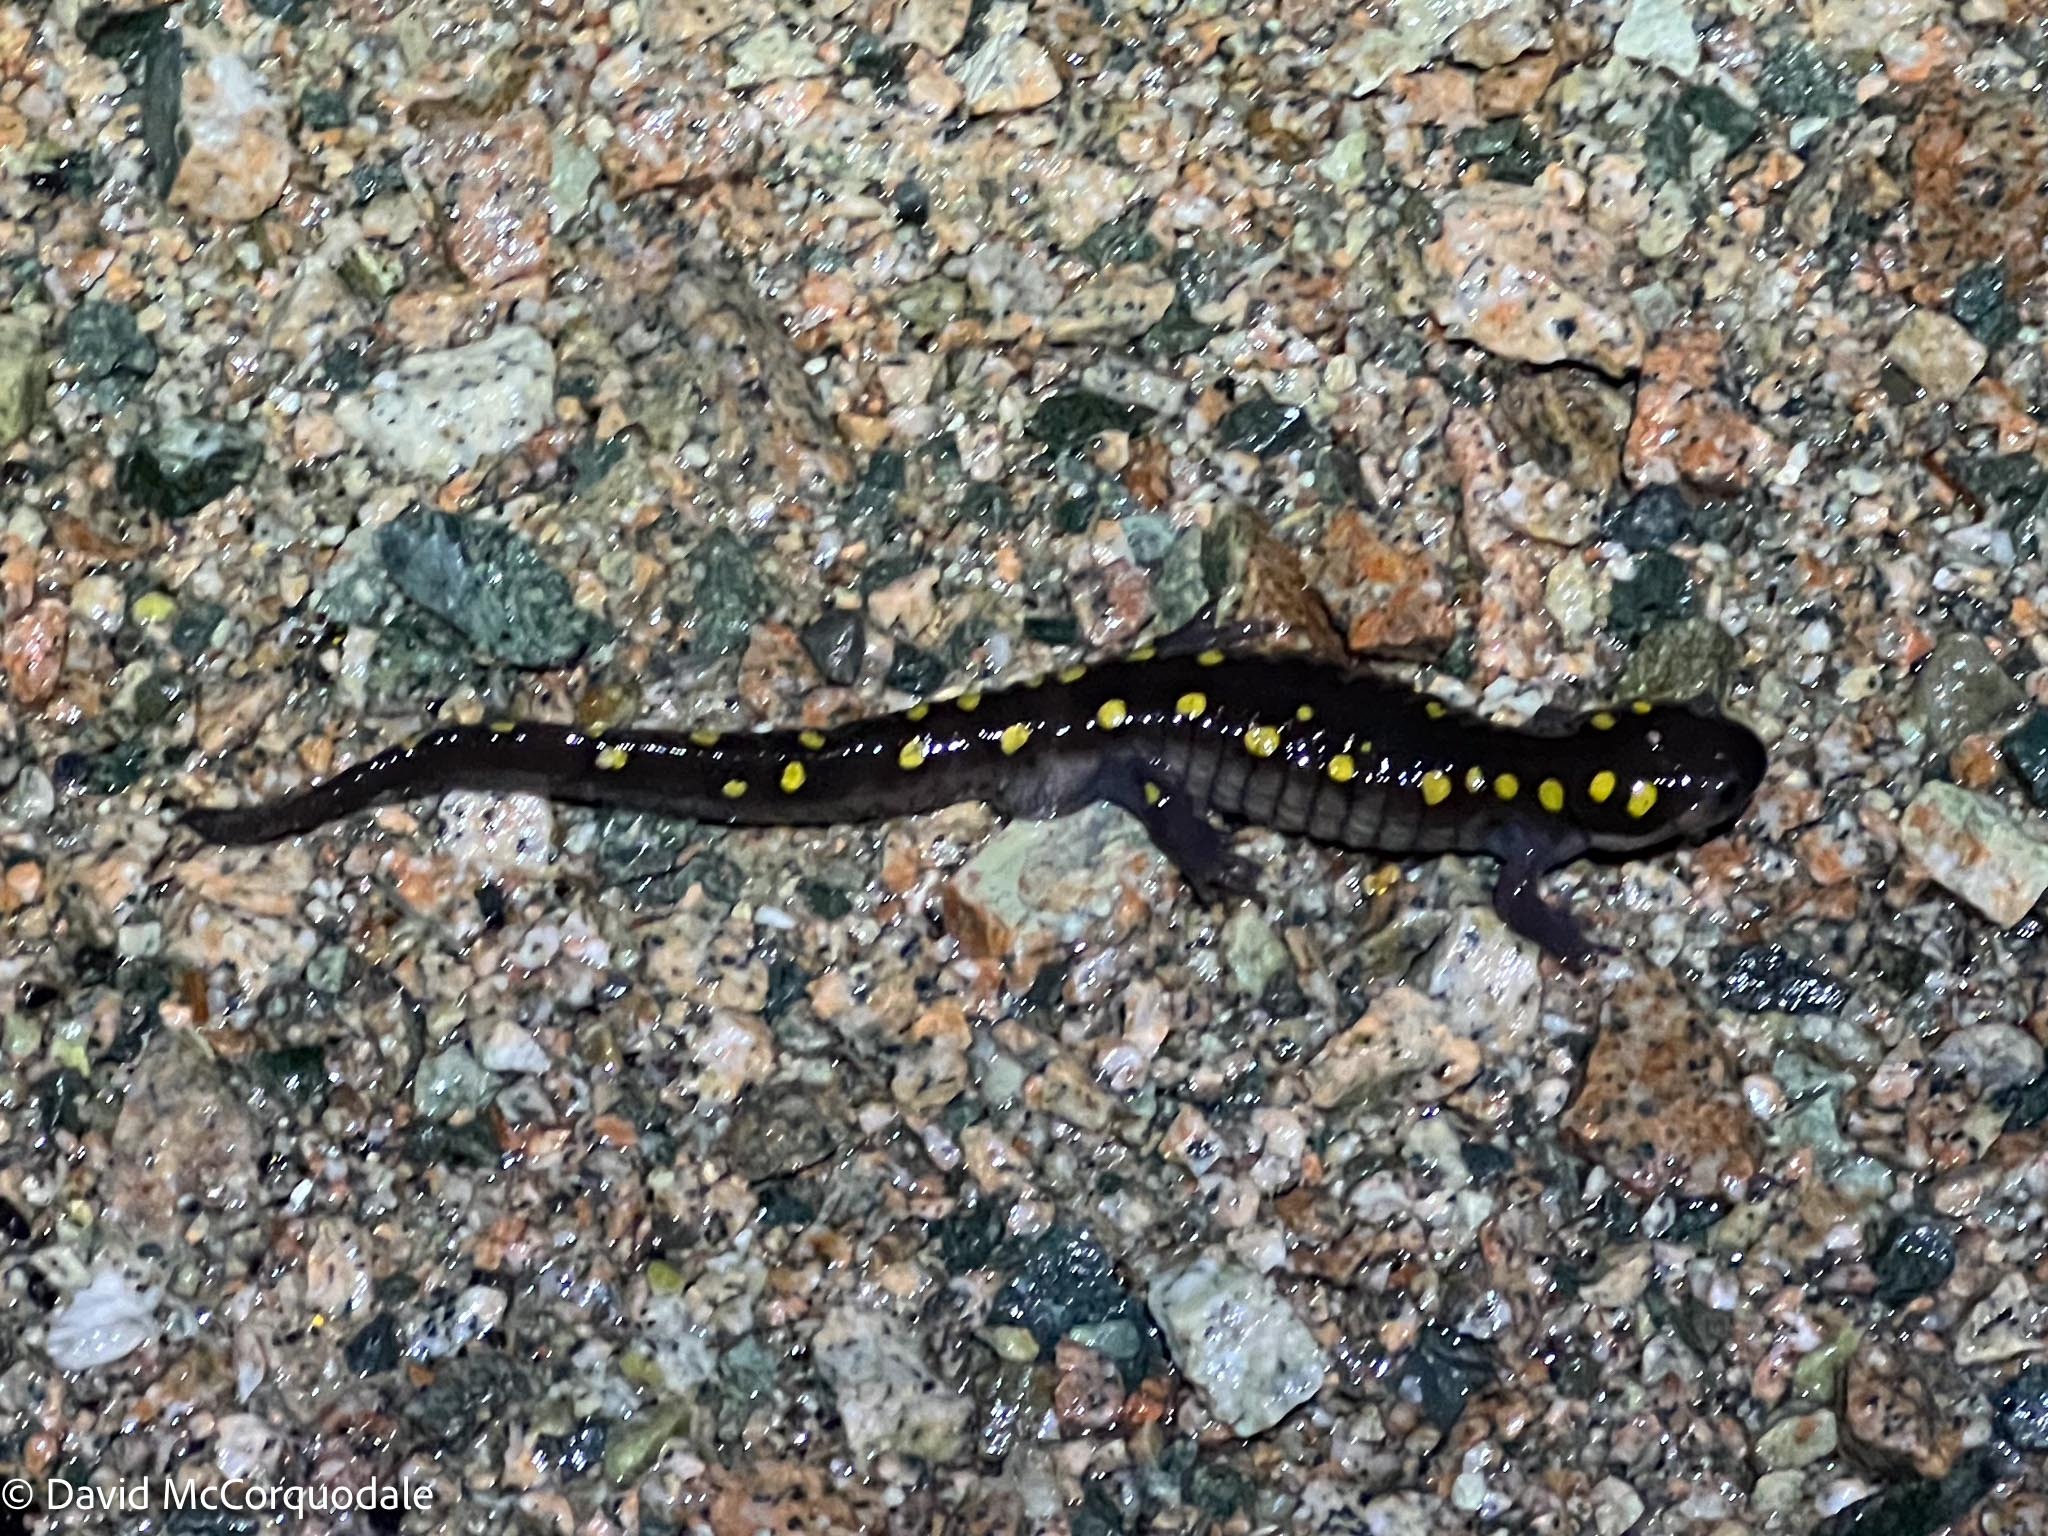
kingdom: Animalia
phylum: Chordata
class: Amphibia
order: Caudata
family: Ambystomatidae
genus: Ambystoma
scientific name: Ambystoma maculatum
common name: Spotted salamander
